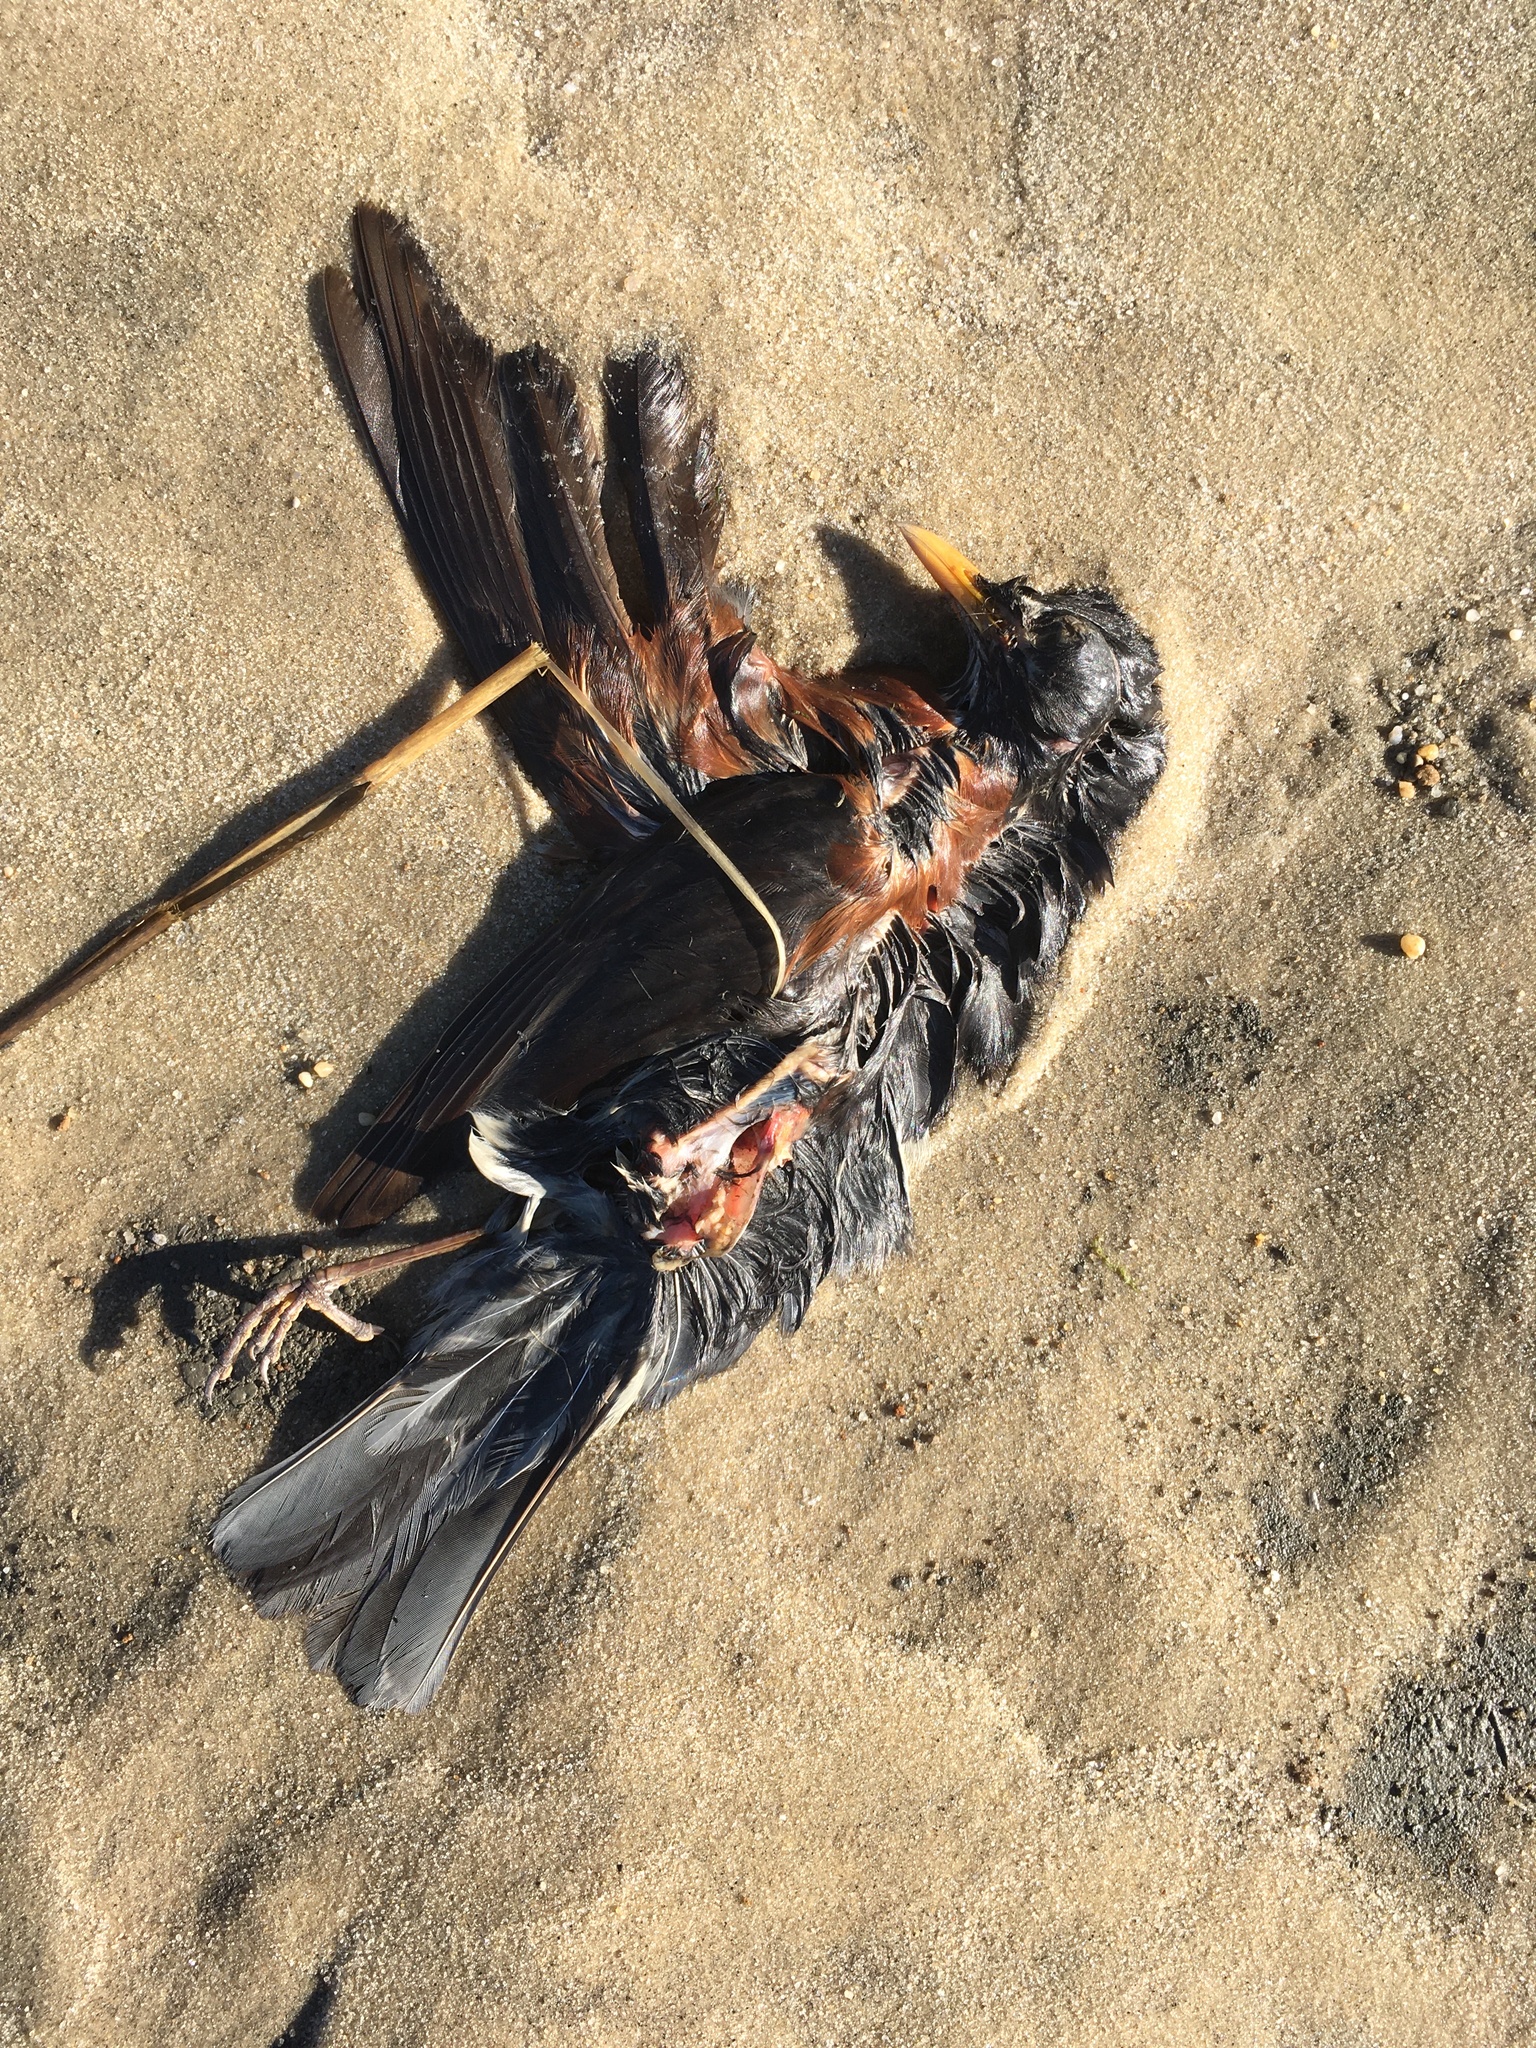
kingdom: Animalia
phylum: Chordata
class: Aves
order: Passeriformes
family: Turdidae
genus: Turdus
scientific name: Turdus migratorius
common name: American robin
